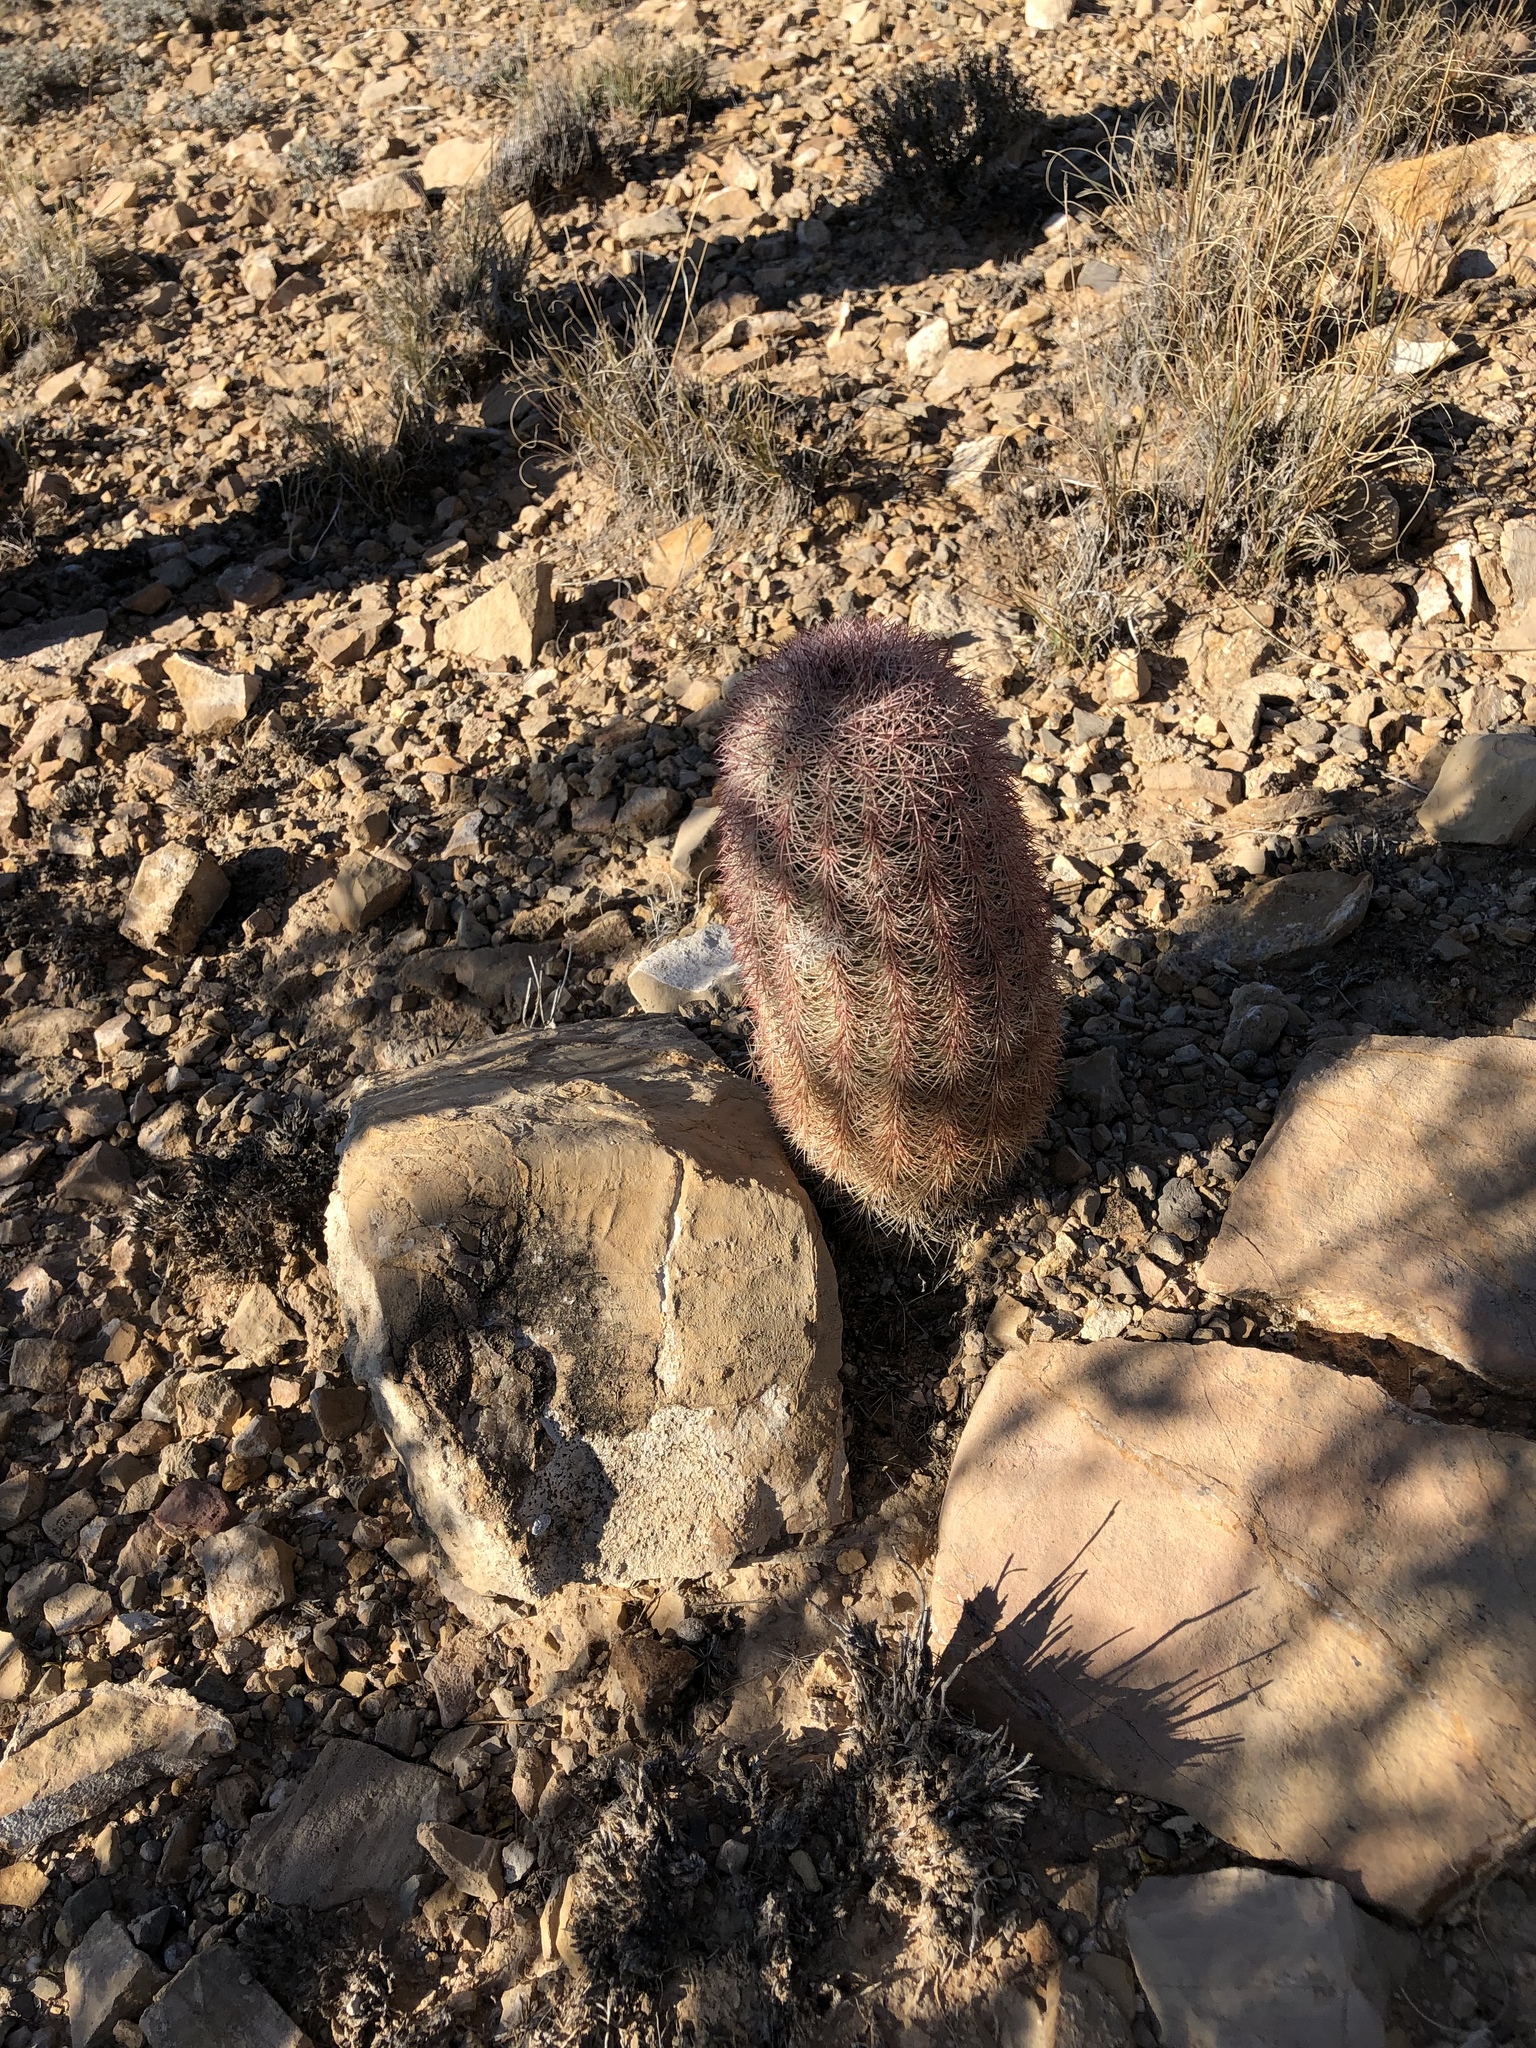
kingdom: Plantae
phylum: Tracheophyta
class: Magnoliopsida
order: Caryophyllales
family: Cactaceae
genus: Echinocereus
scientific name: Echinocereus dasyacanthus
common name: Spiny hedgehog cactus
